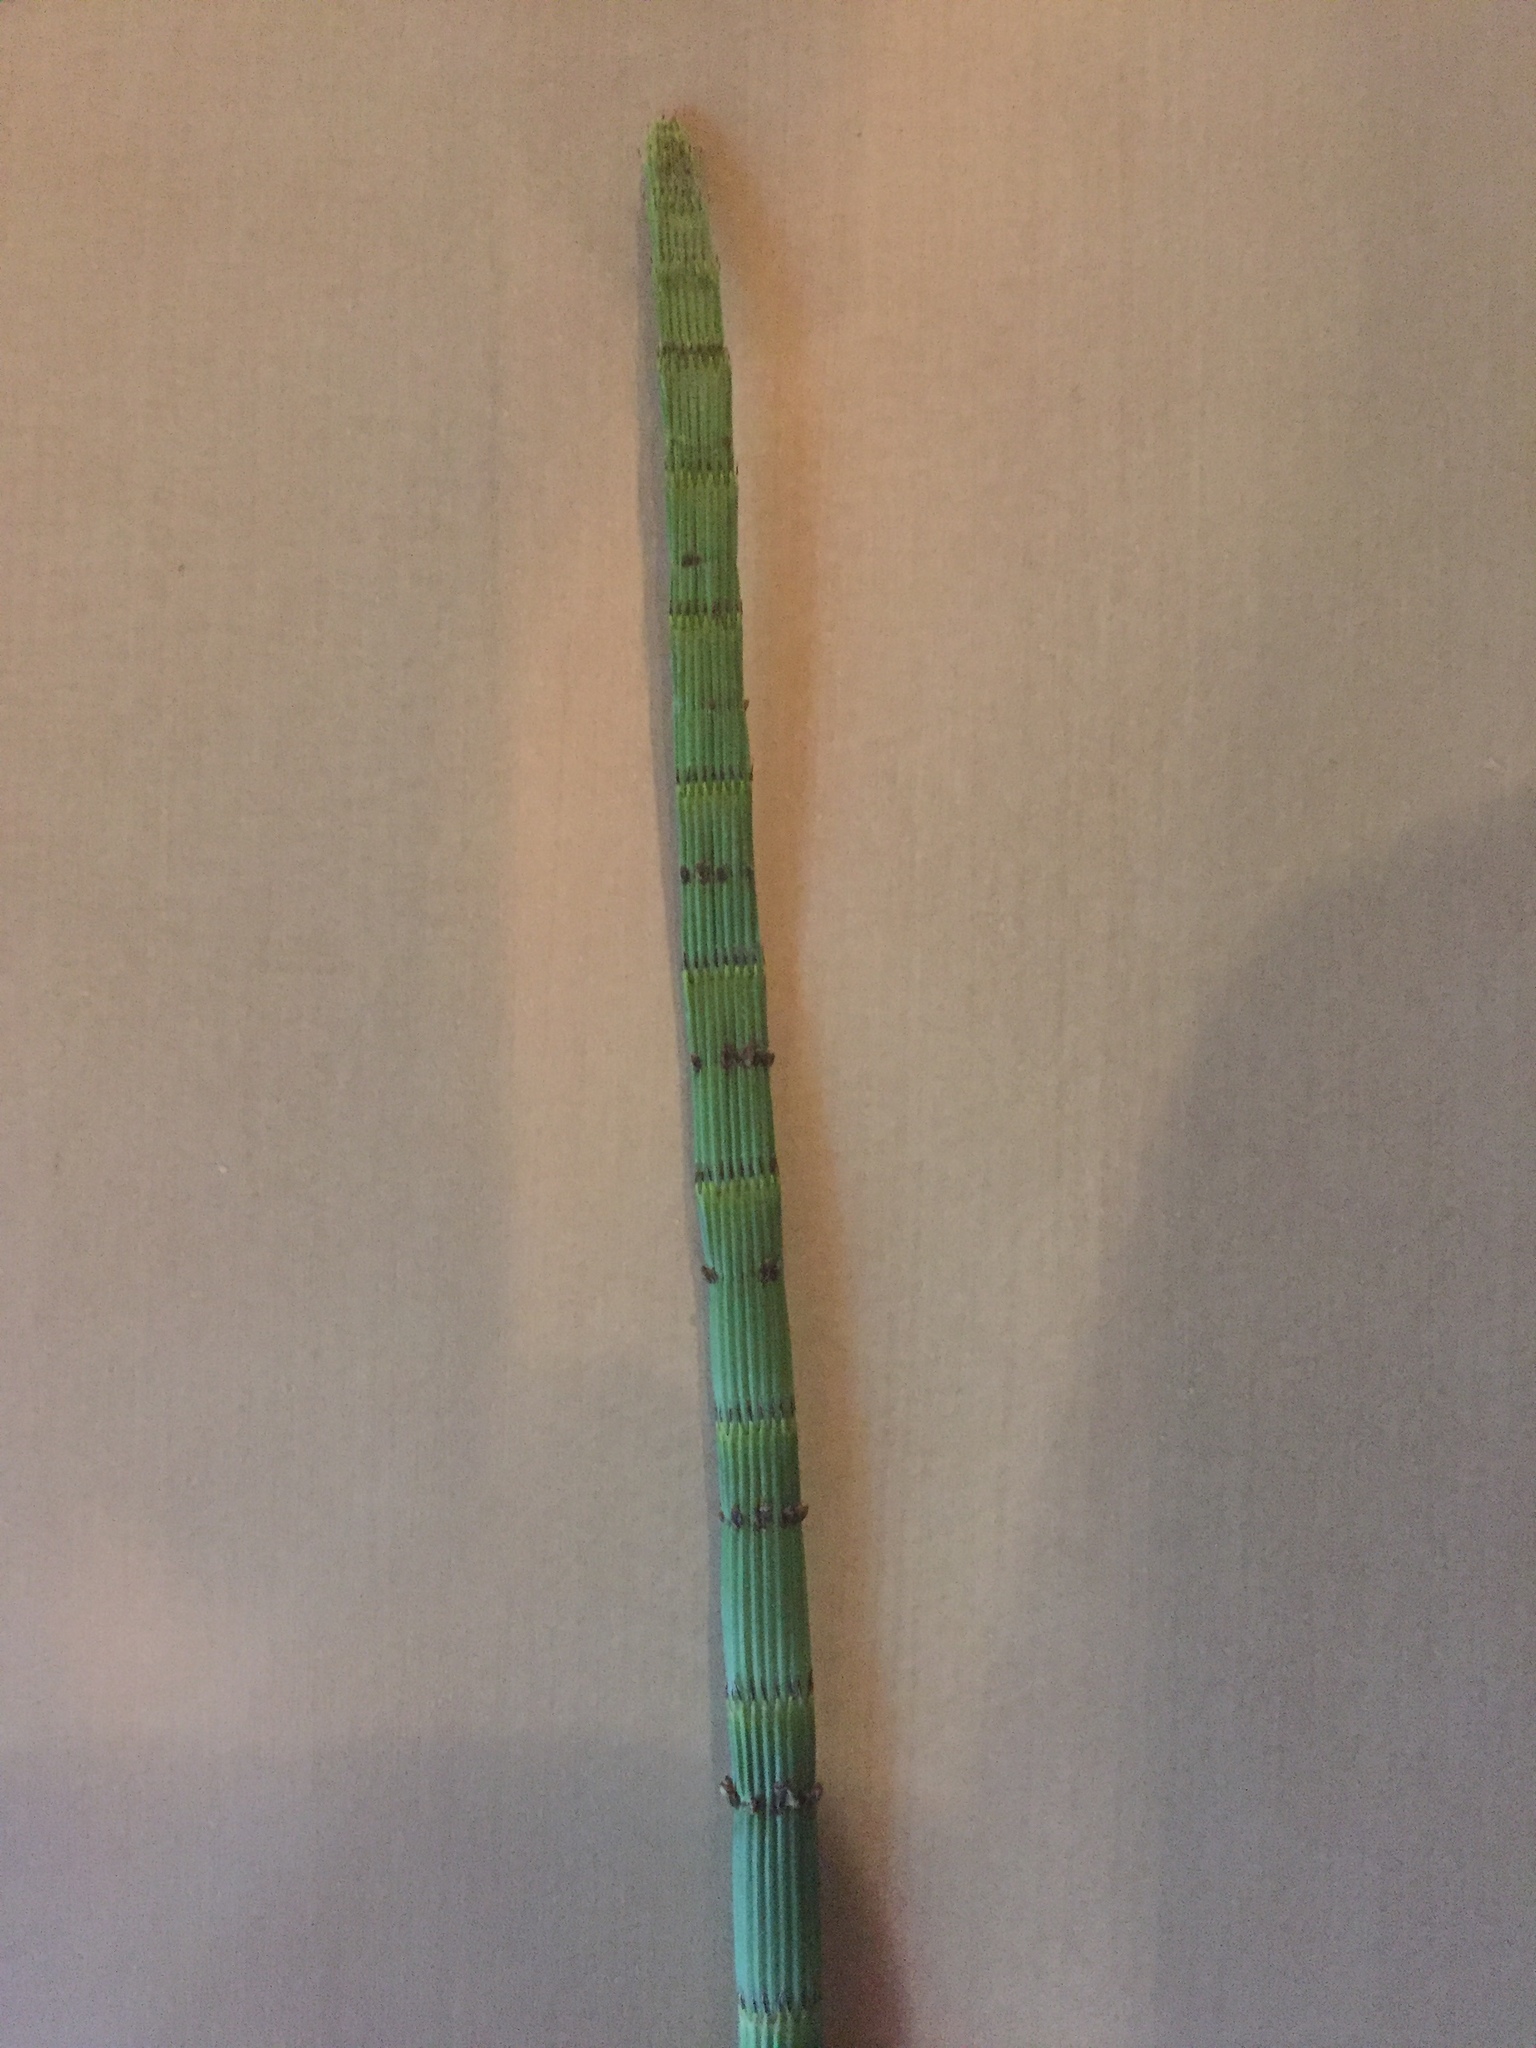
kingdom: Plantae
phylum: Tracheophyta
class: Polypodiopsida
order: Equisetales
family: Equisetaceae
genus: Equisetum
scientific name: Equisetum hyemale
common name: Rough horsetail
